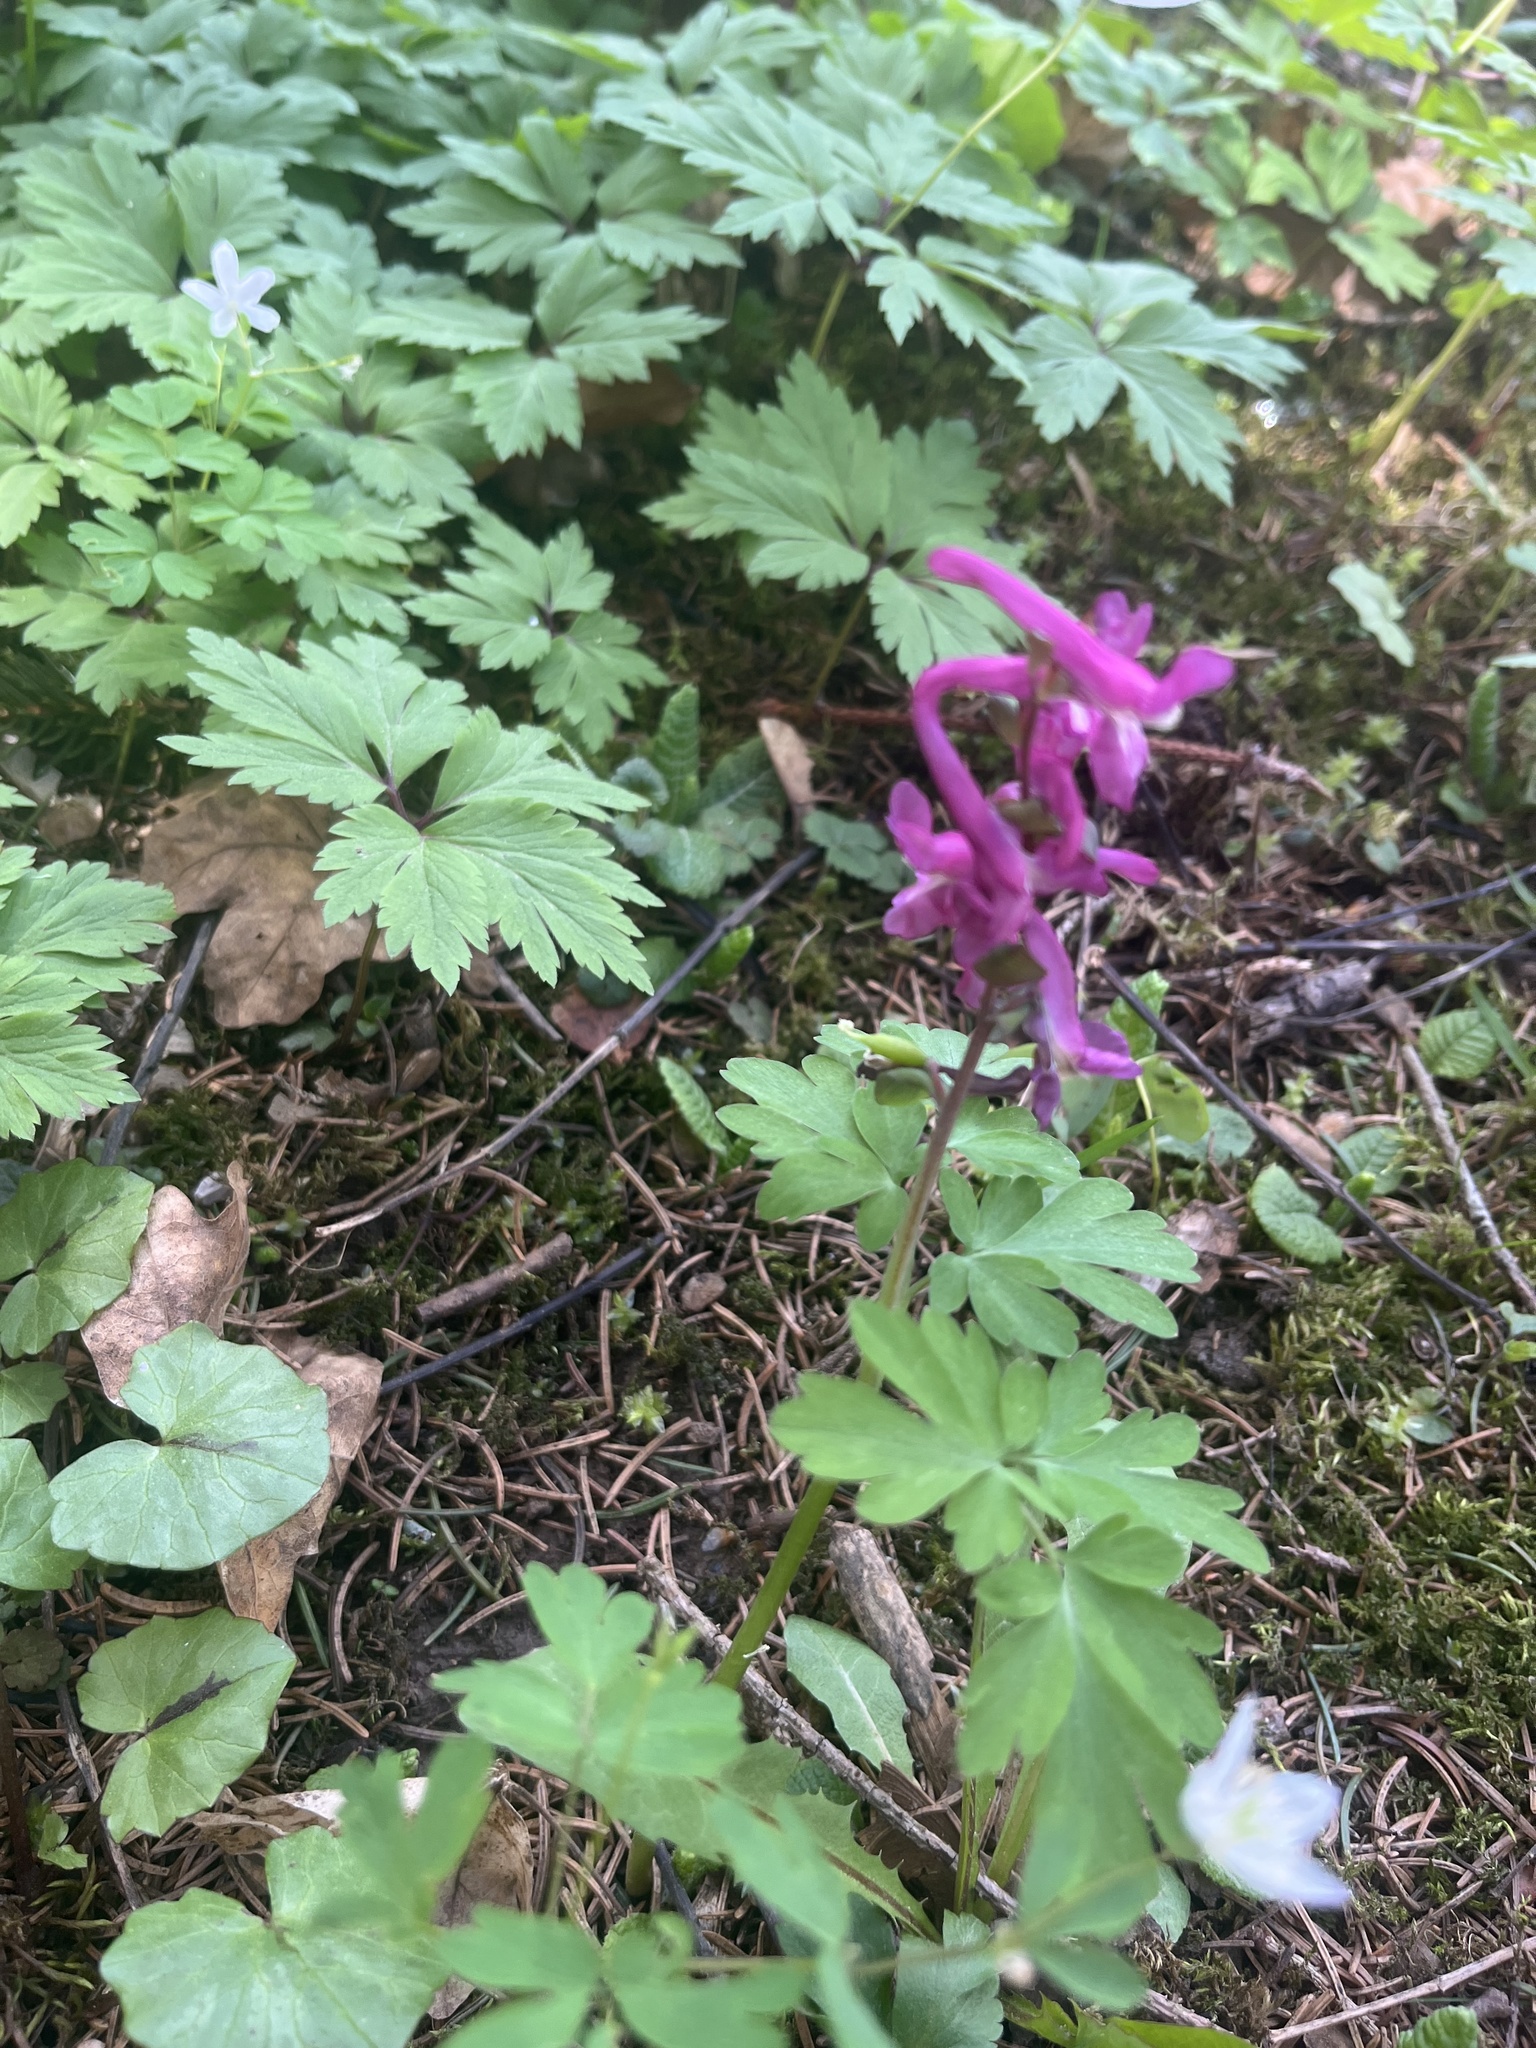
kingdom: Plantae
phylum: Tracheophyta
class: Magnoliopsida
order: Ranunculales
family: Papaveraceae
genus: Corydalis
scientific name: Corydalis cava
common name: Hollowroot
